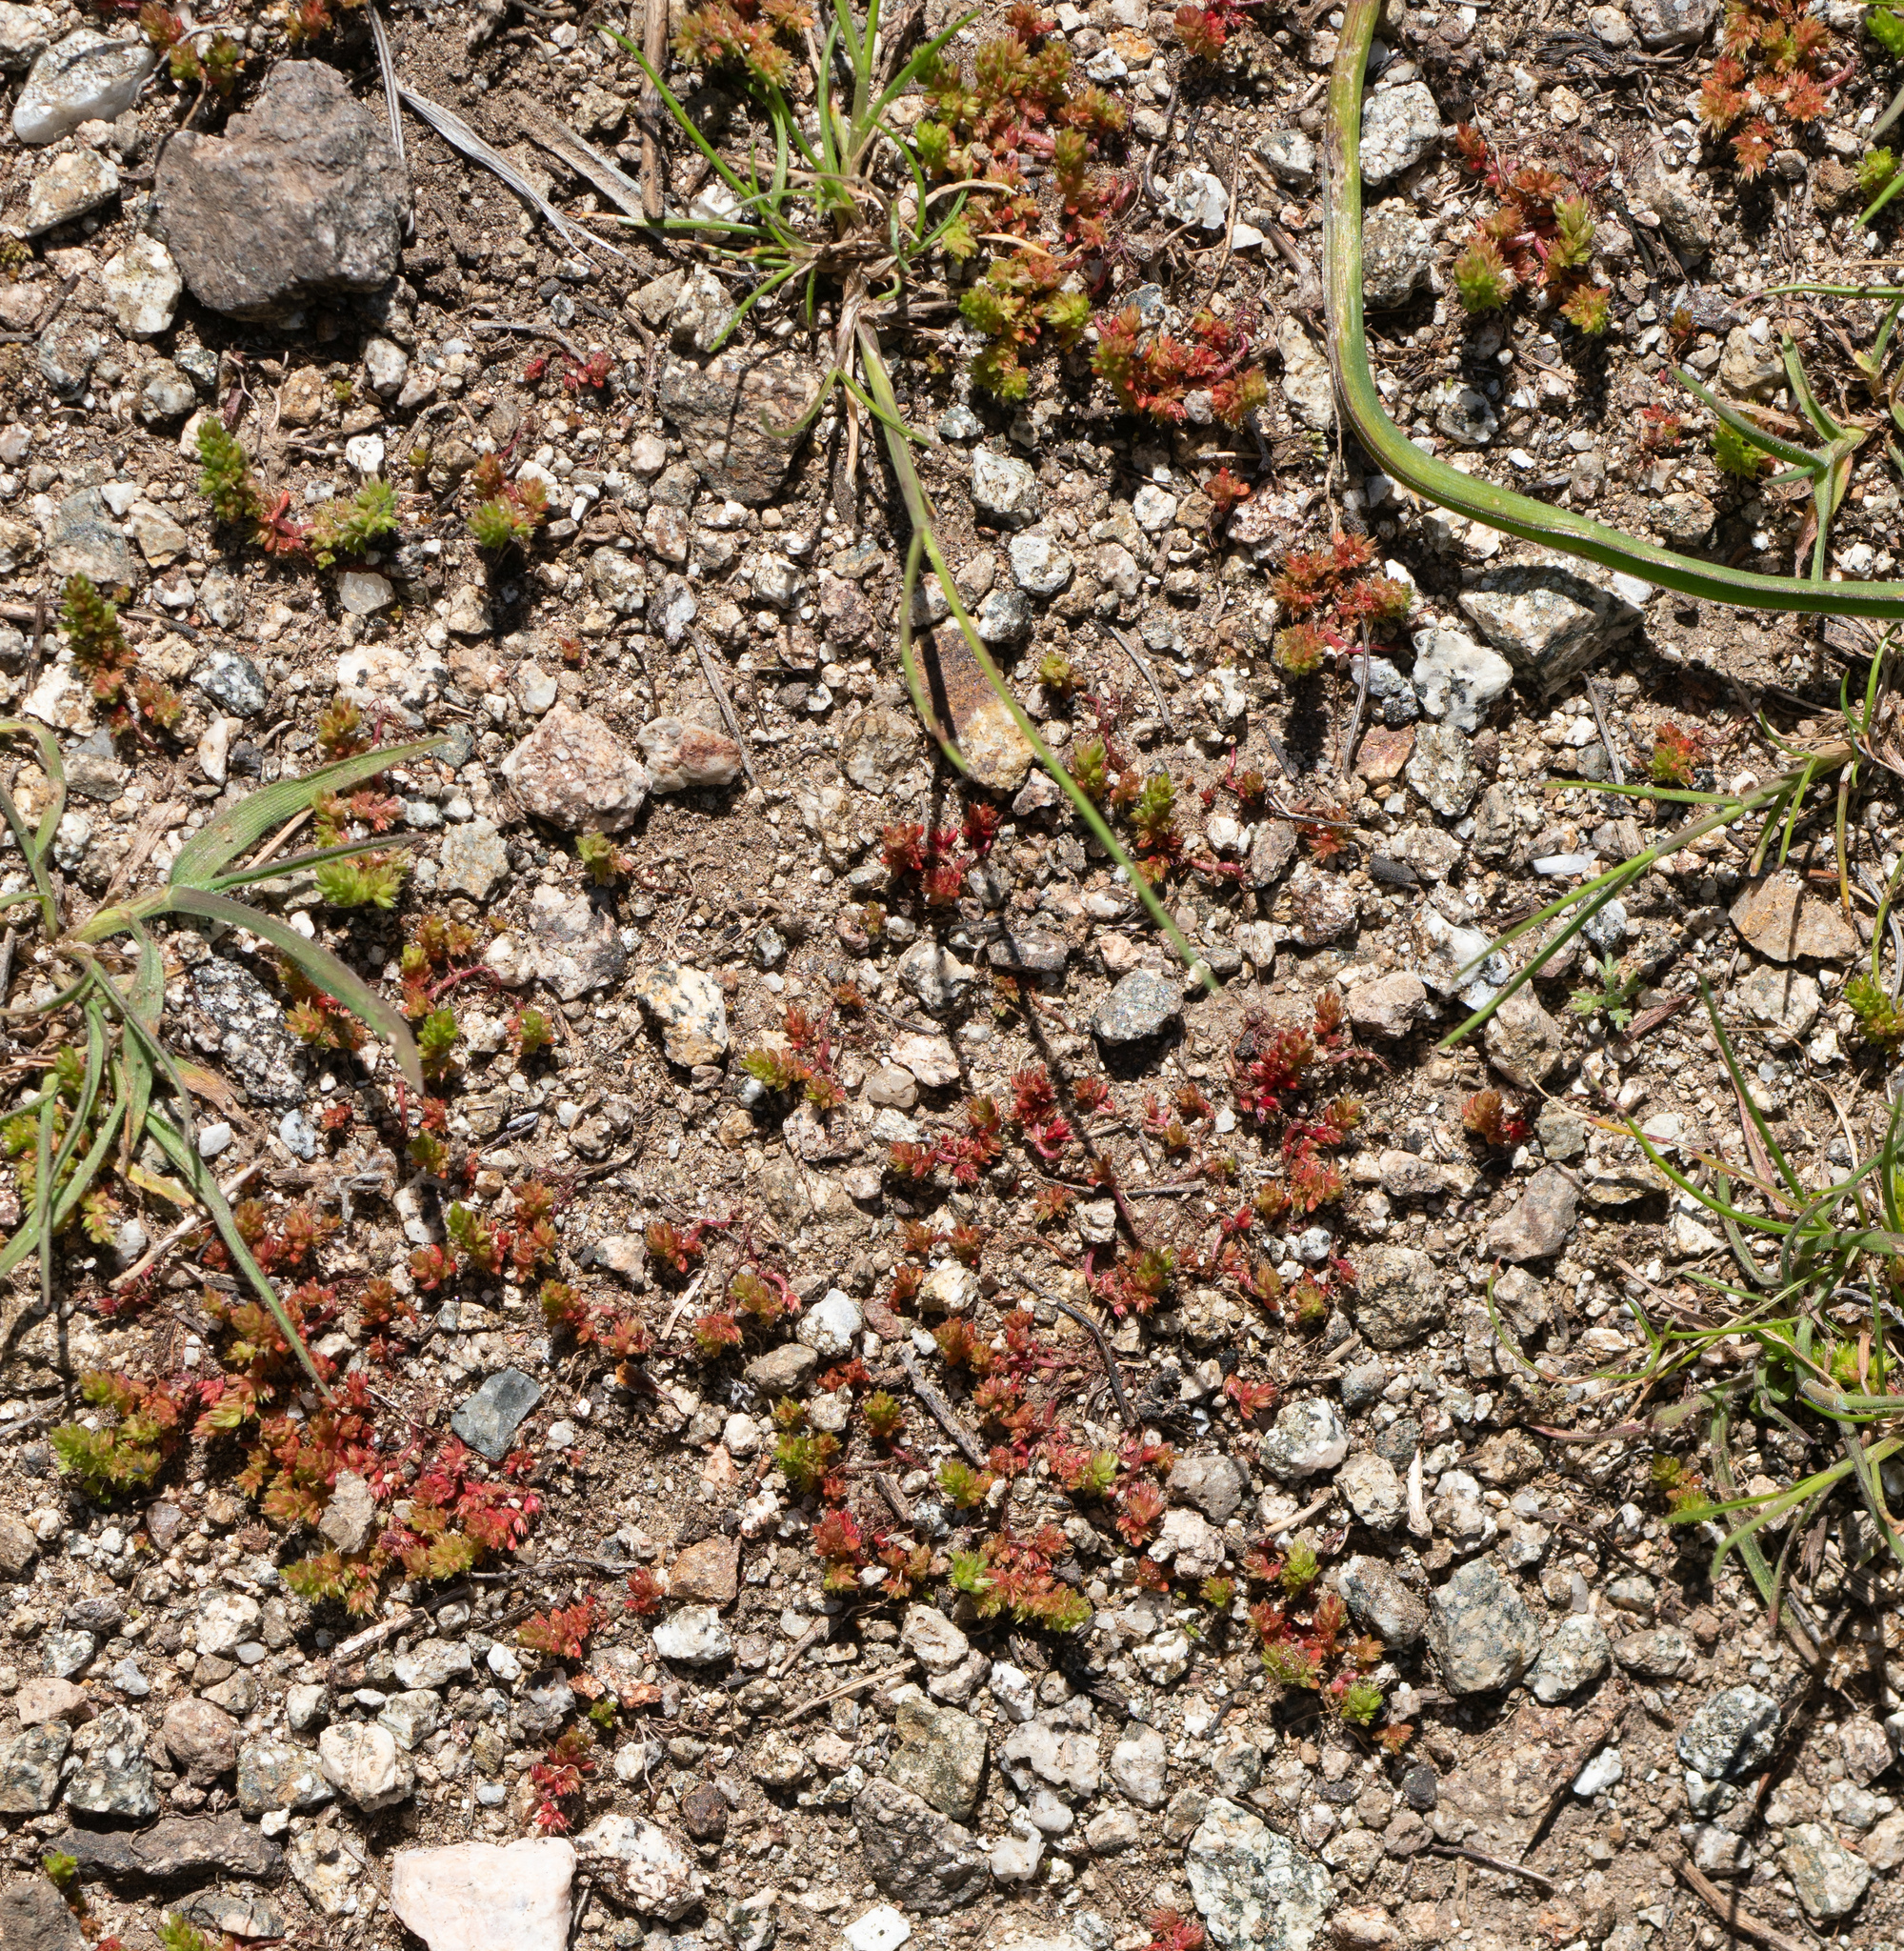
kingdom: Plantae
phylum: Tracheophyta
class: Magnoliopsida
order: Saxifragales
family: Crassulaceae
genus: Crassula
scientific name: Crassula connata
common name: Erect pygmyweed
